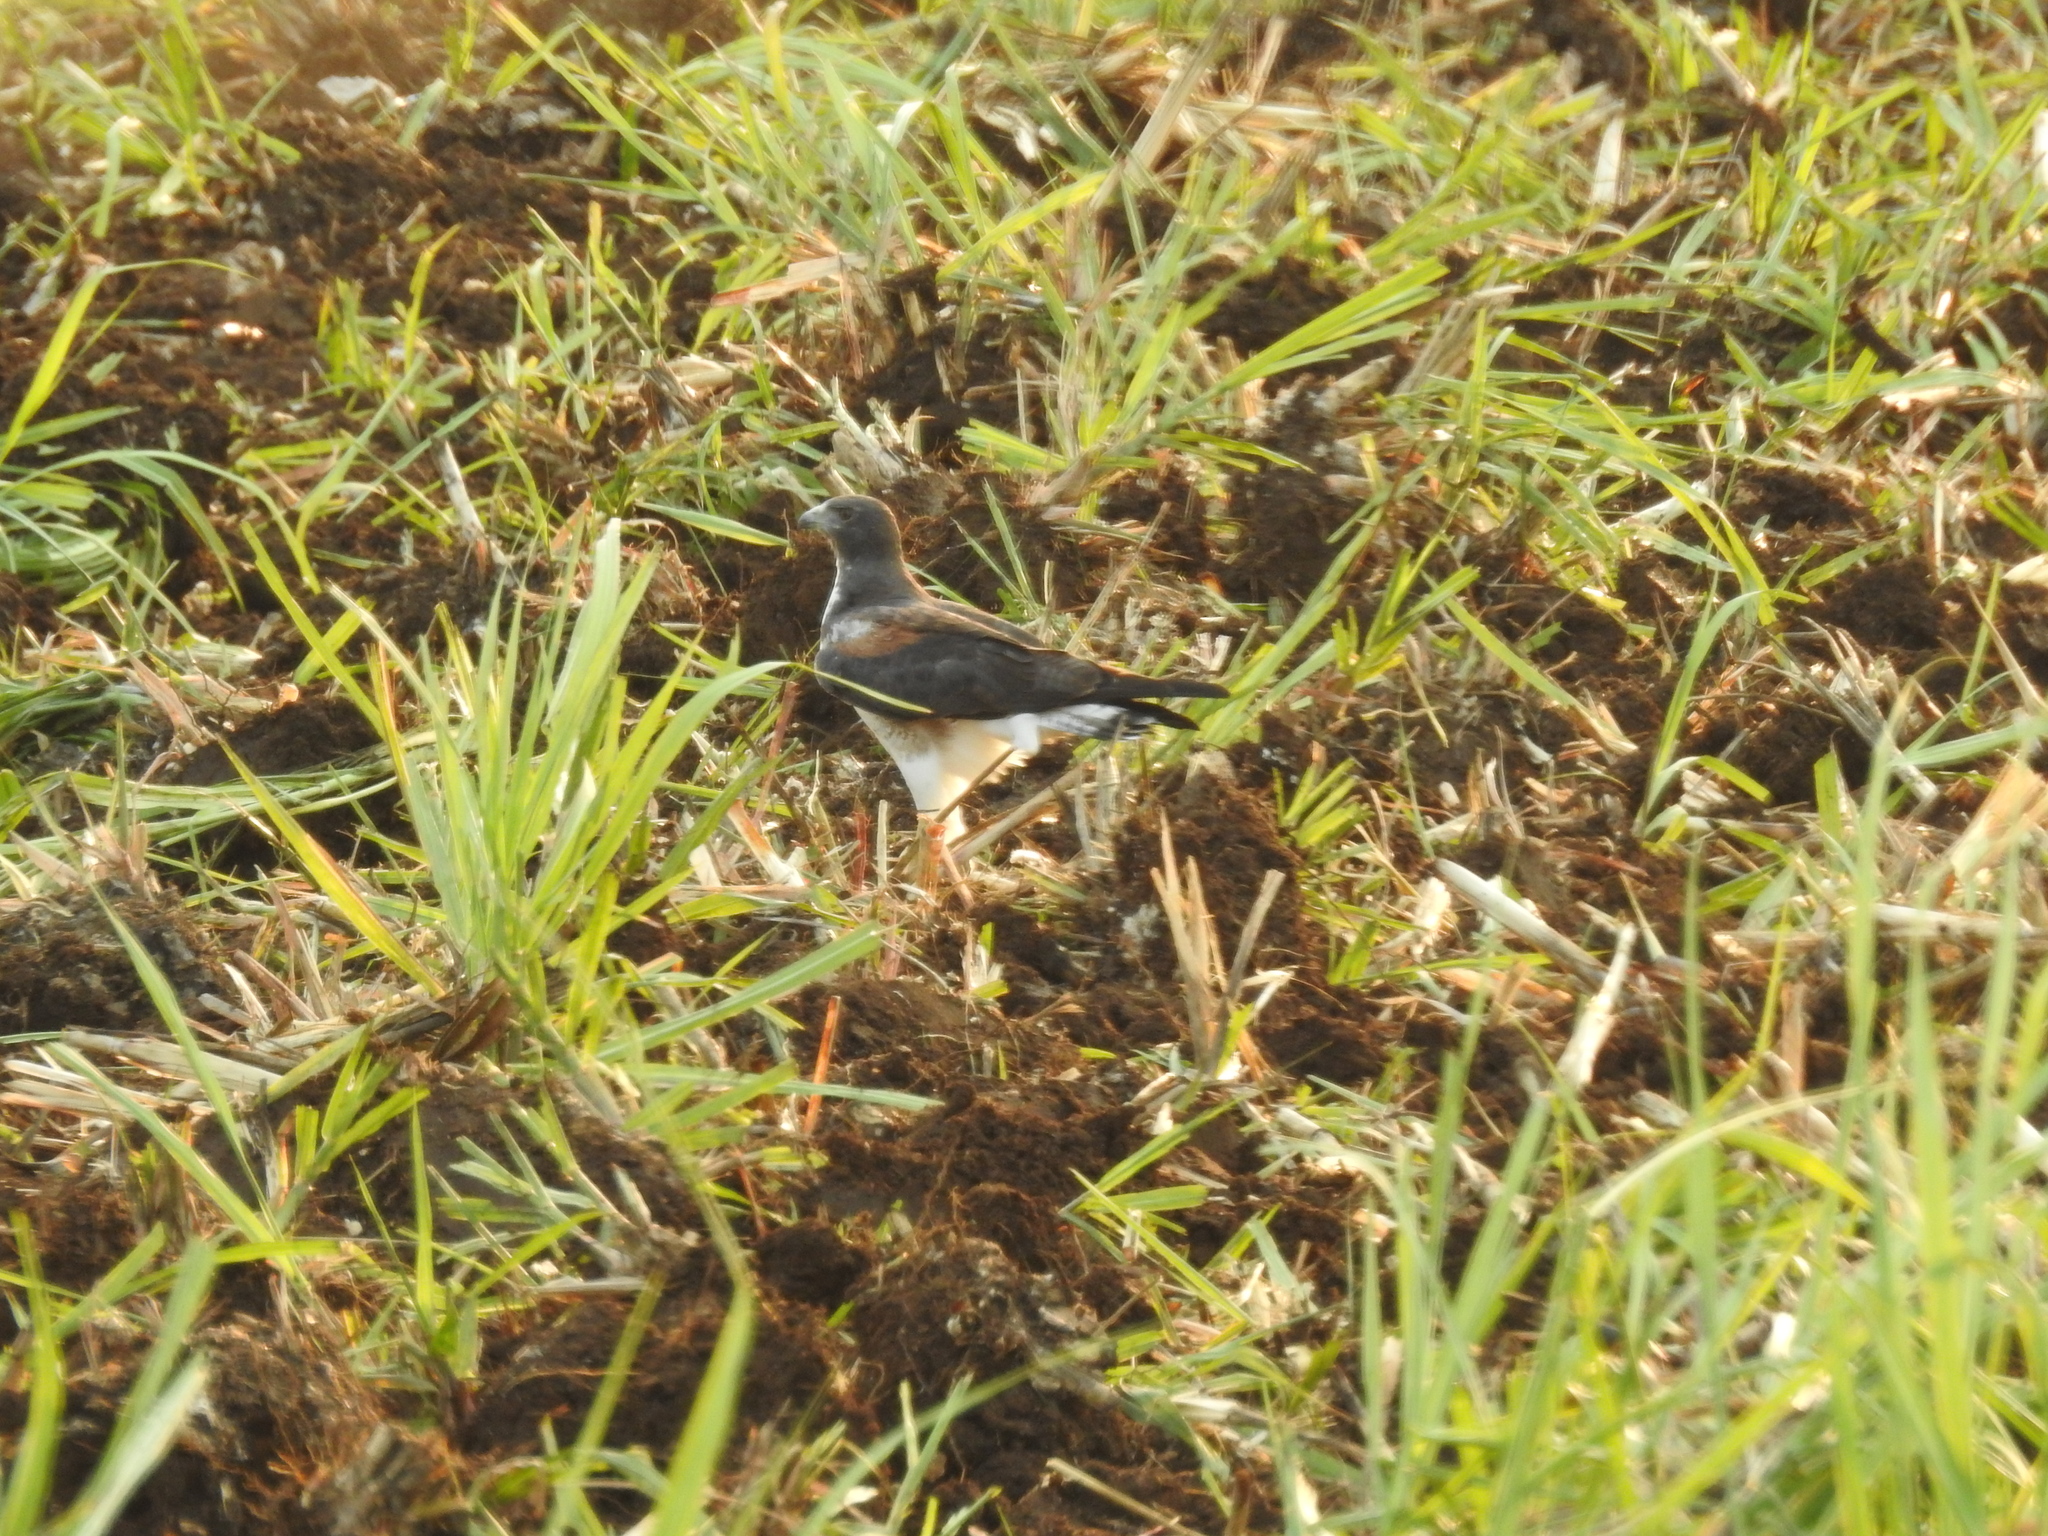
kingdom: Animalia
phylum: Chordata
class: Aves
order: Accipitriformes
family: Accipitridae
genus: Buteo
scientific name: Buteo albicaudatus
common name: White-tailed hawk
